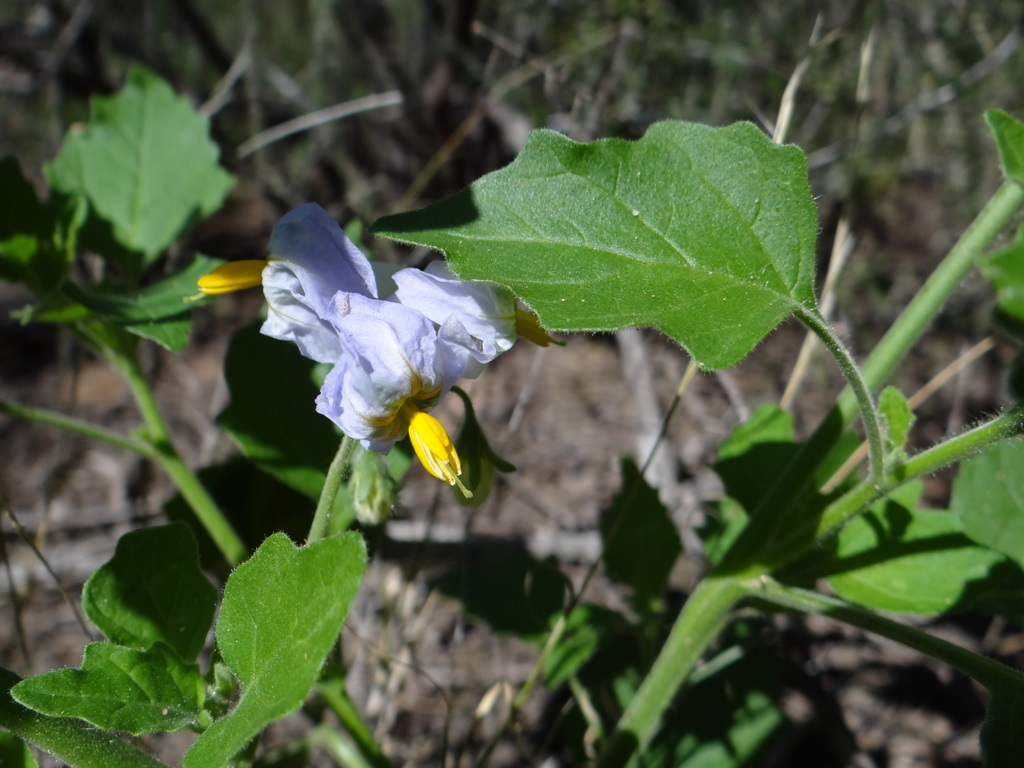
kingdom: Plantae
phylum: Tracheophyta
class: Magnoliopsida
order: Solanales
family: Solanaceae
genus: Solanum
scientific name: Solanum tweedianum
